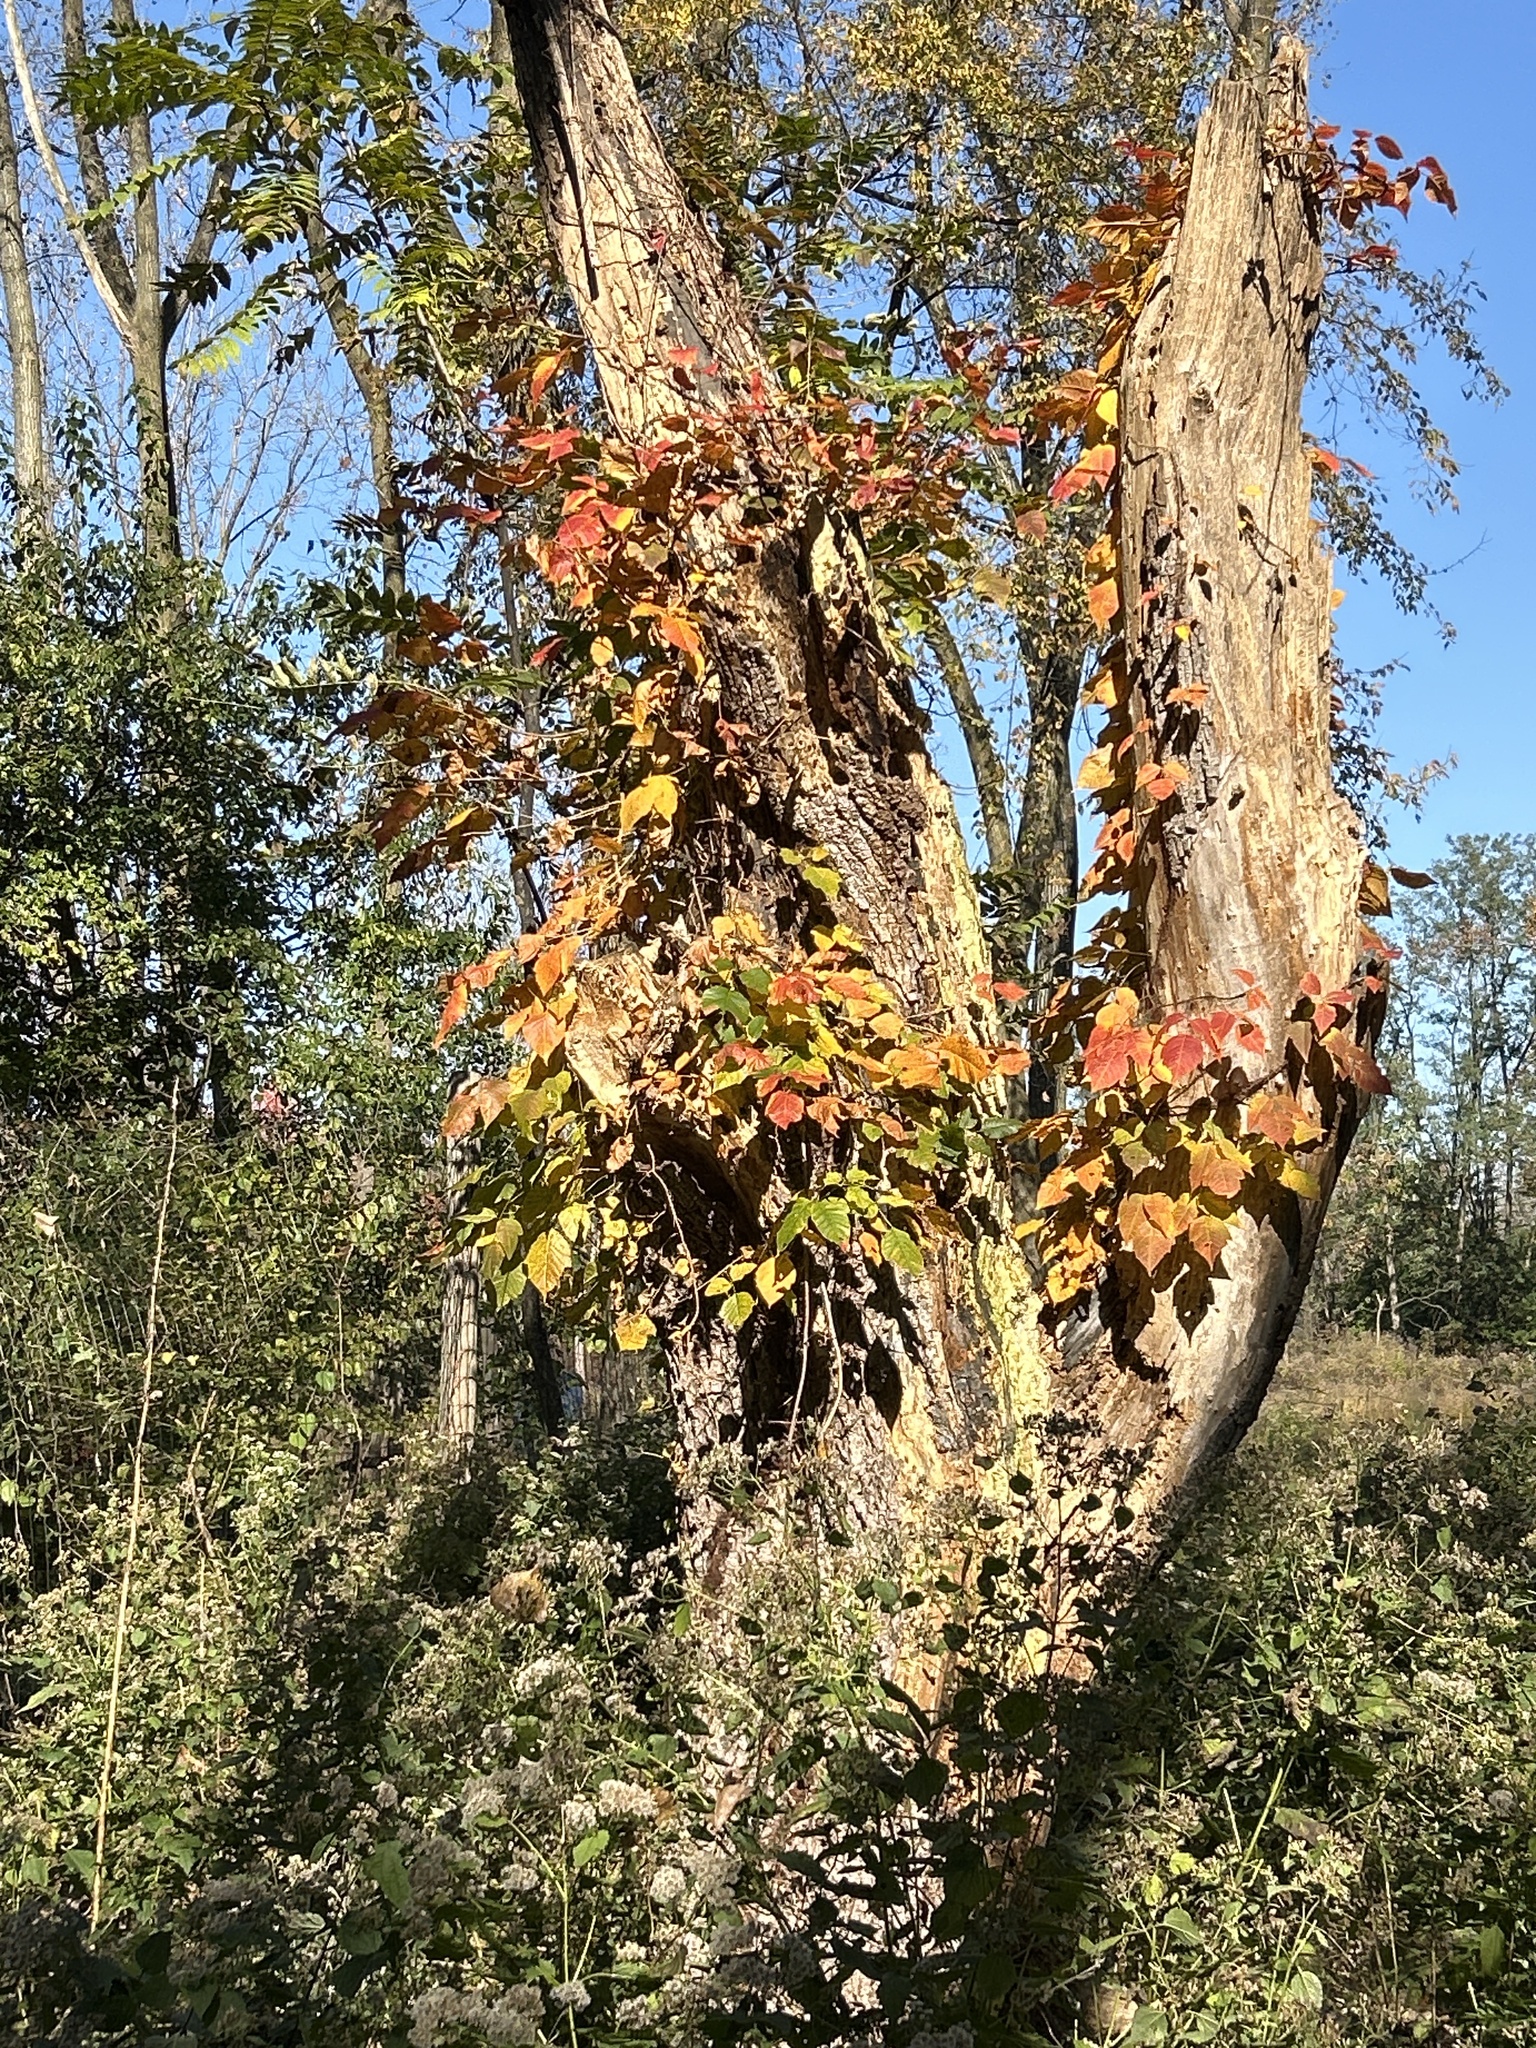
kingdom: Plantae
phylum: Tracheophyta
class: Magnoliopsida
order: Sapindales
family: Anacardiaceae
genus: Toxicodendron
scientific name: Toxicodendron radicans
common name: Poison ivy
